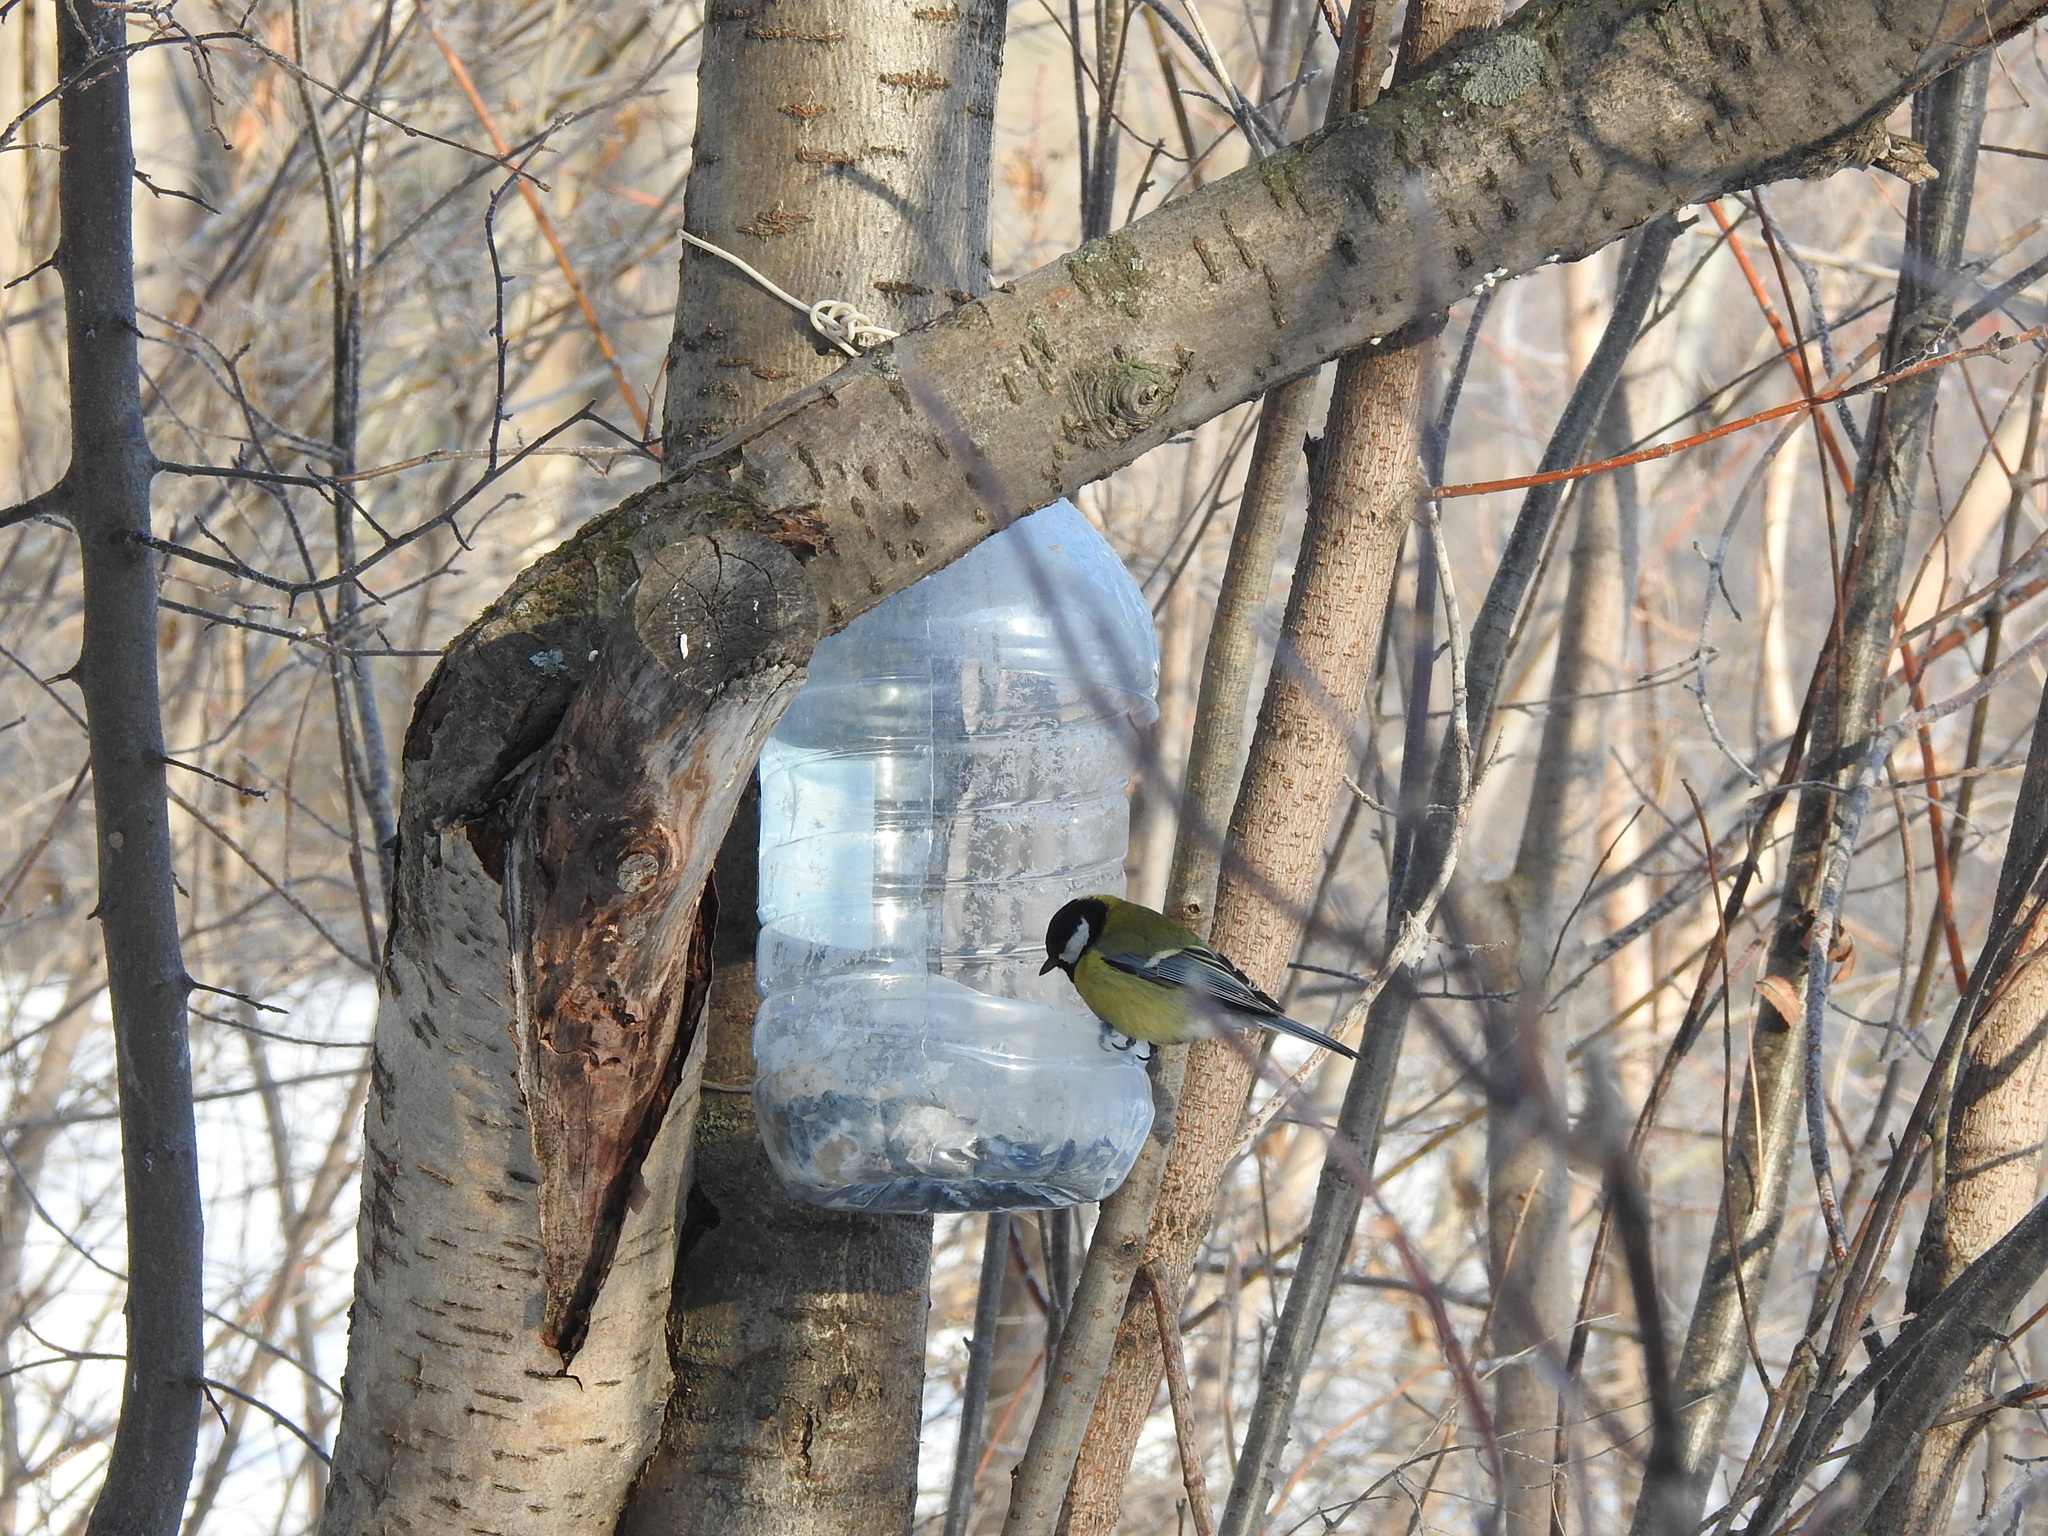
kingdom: Animalia
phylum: Chordata
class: Aves
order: Passeriformes
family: Paridae
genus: Parus
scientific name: Parus major
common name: Great tit
